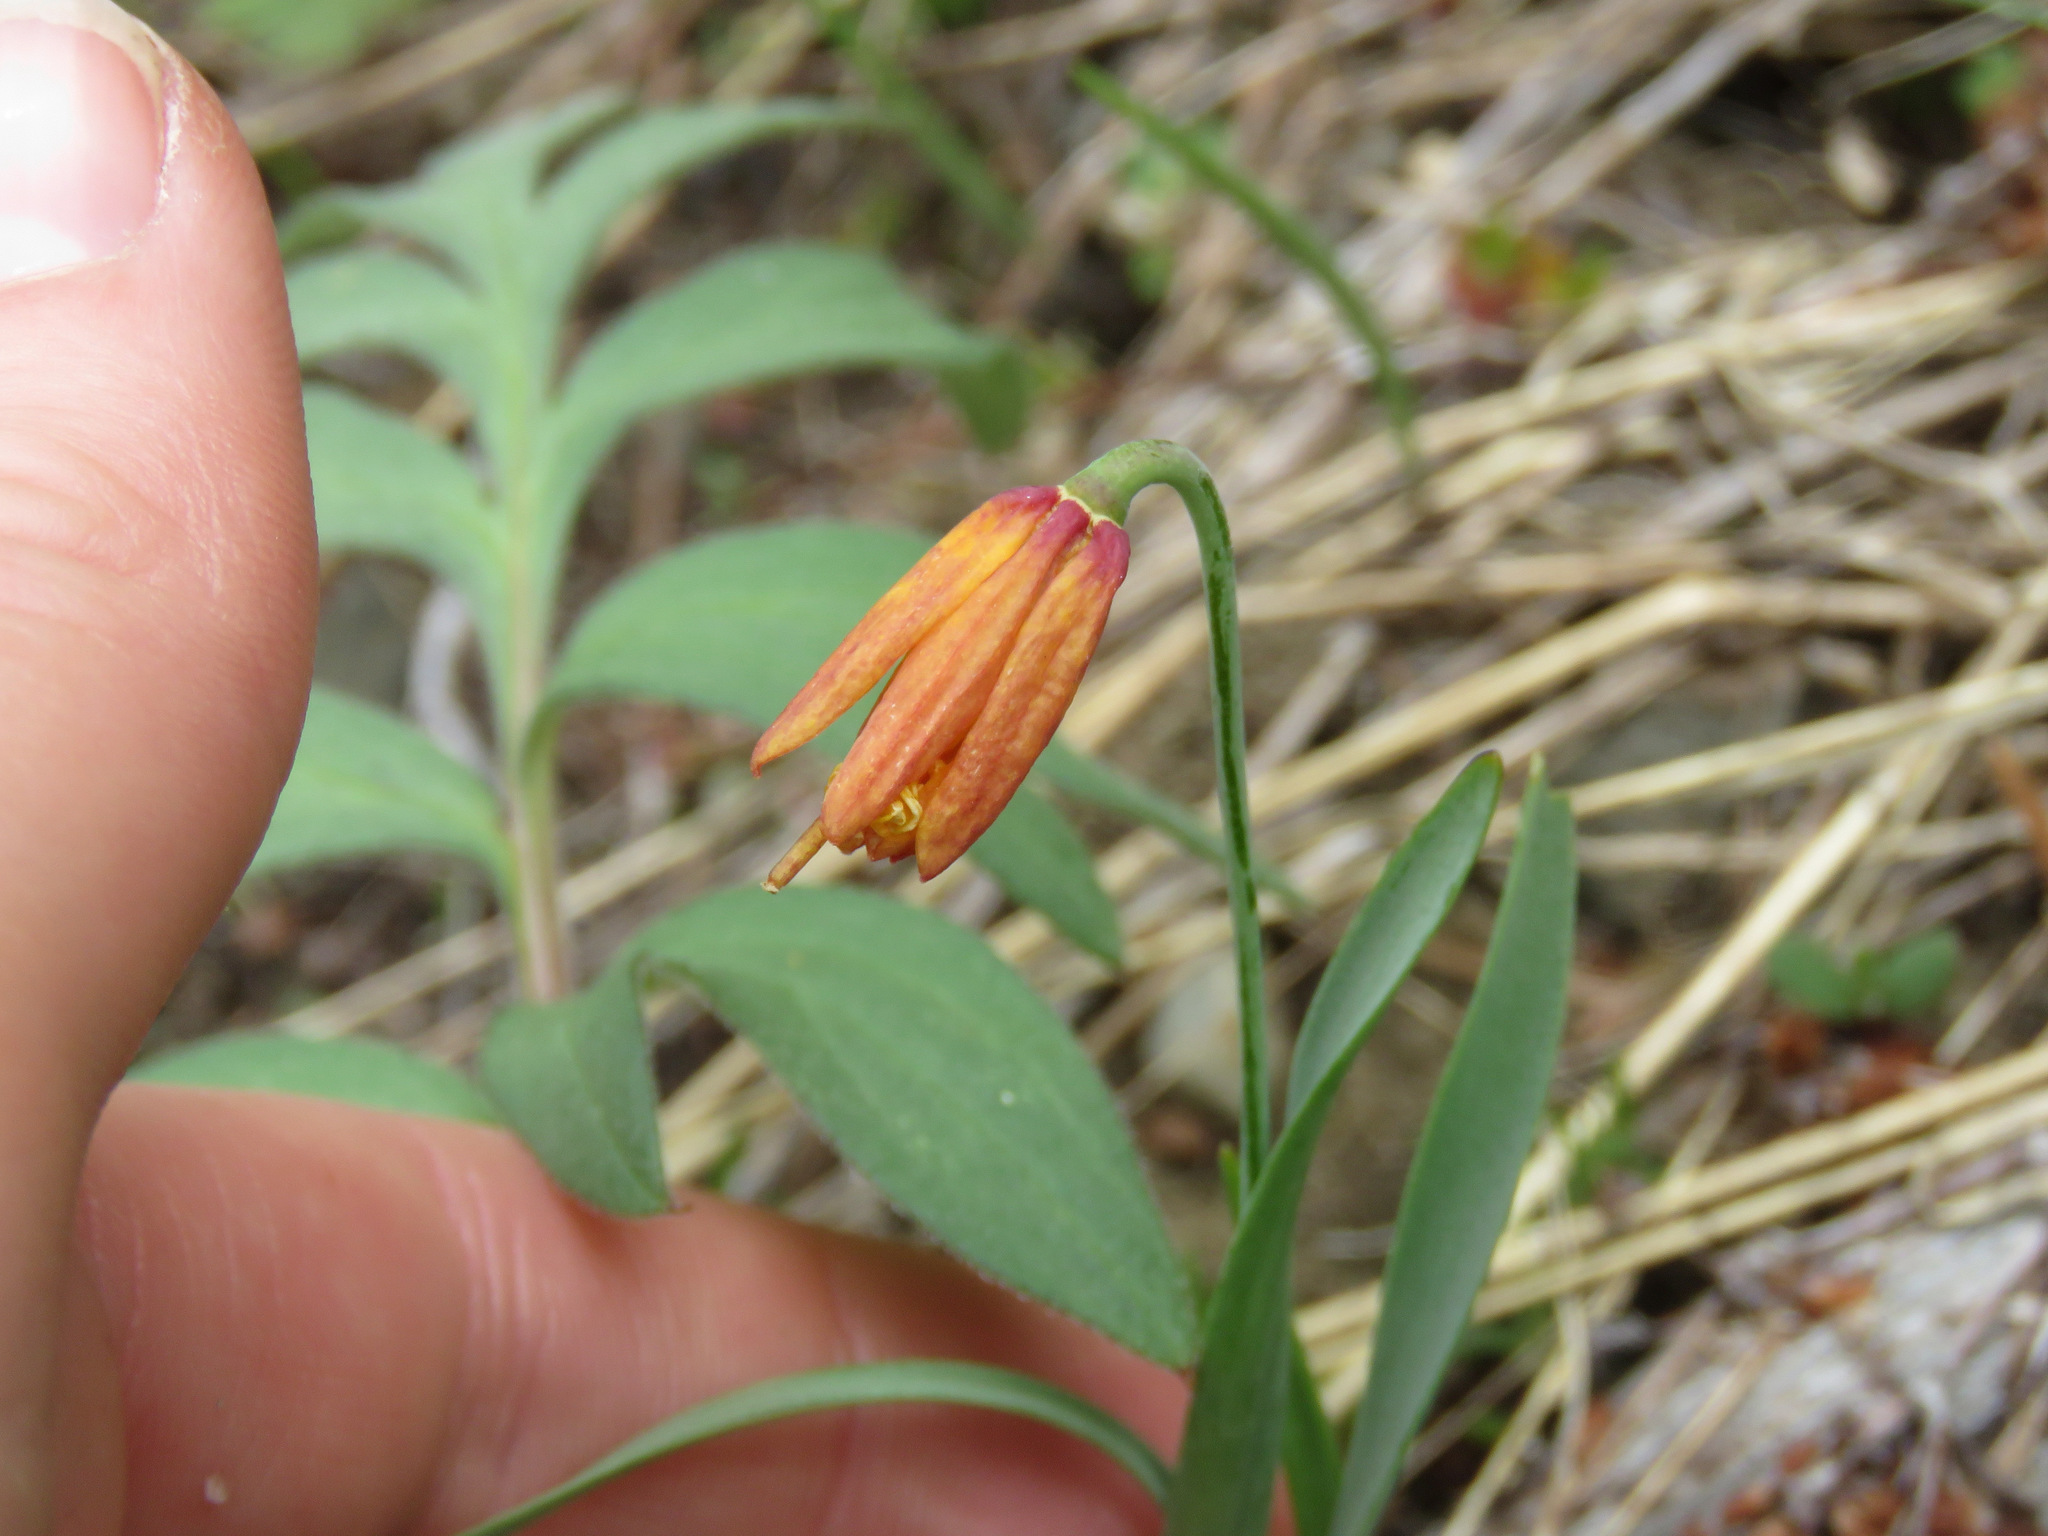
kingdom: Plantae
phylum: Tracheophyta
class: Liliopsida
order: Liliales
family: Liliaceae
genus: Fritillaria
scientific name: Fritillaria pudica
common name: Yellow fritillary
